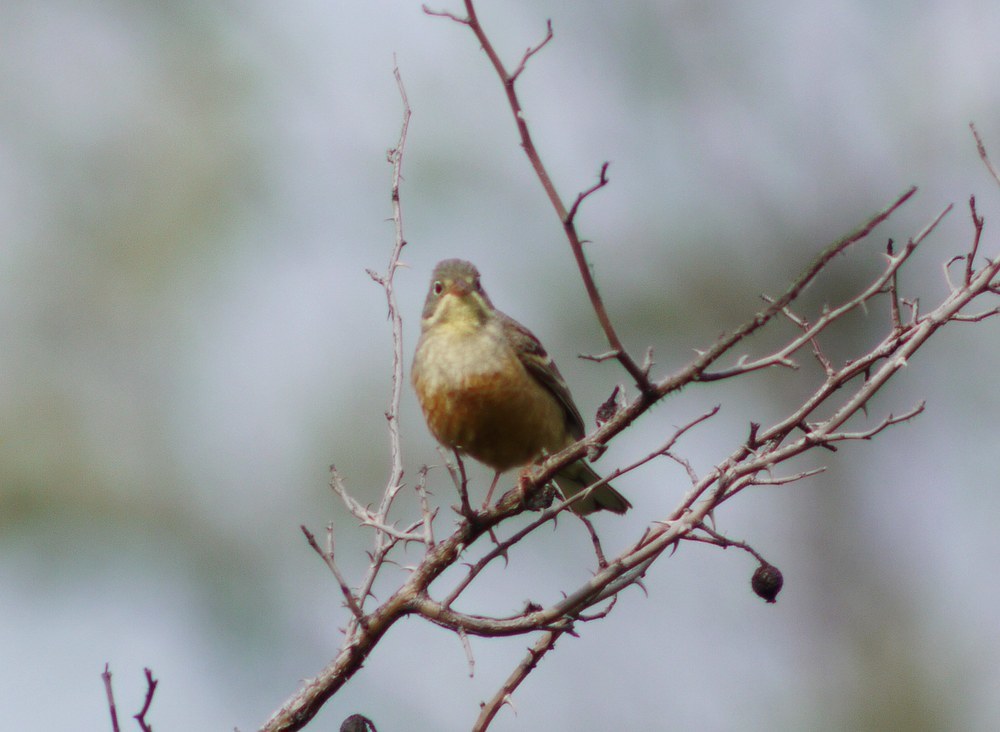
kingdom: Animalia
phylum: Chordata
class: Aves
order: Passeriformes
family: Emberizidae
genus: Emberiza
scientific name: Emberiza hortulana
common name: Ortolan bunting
